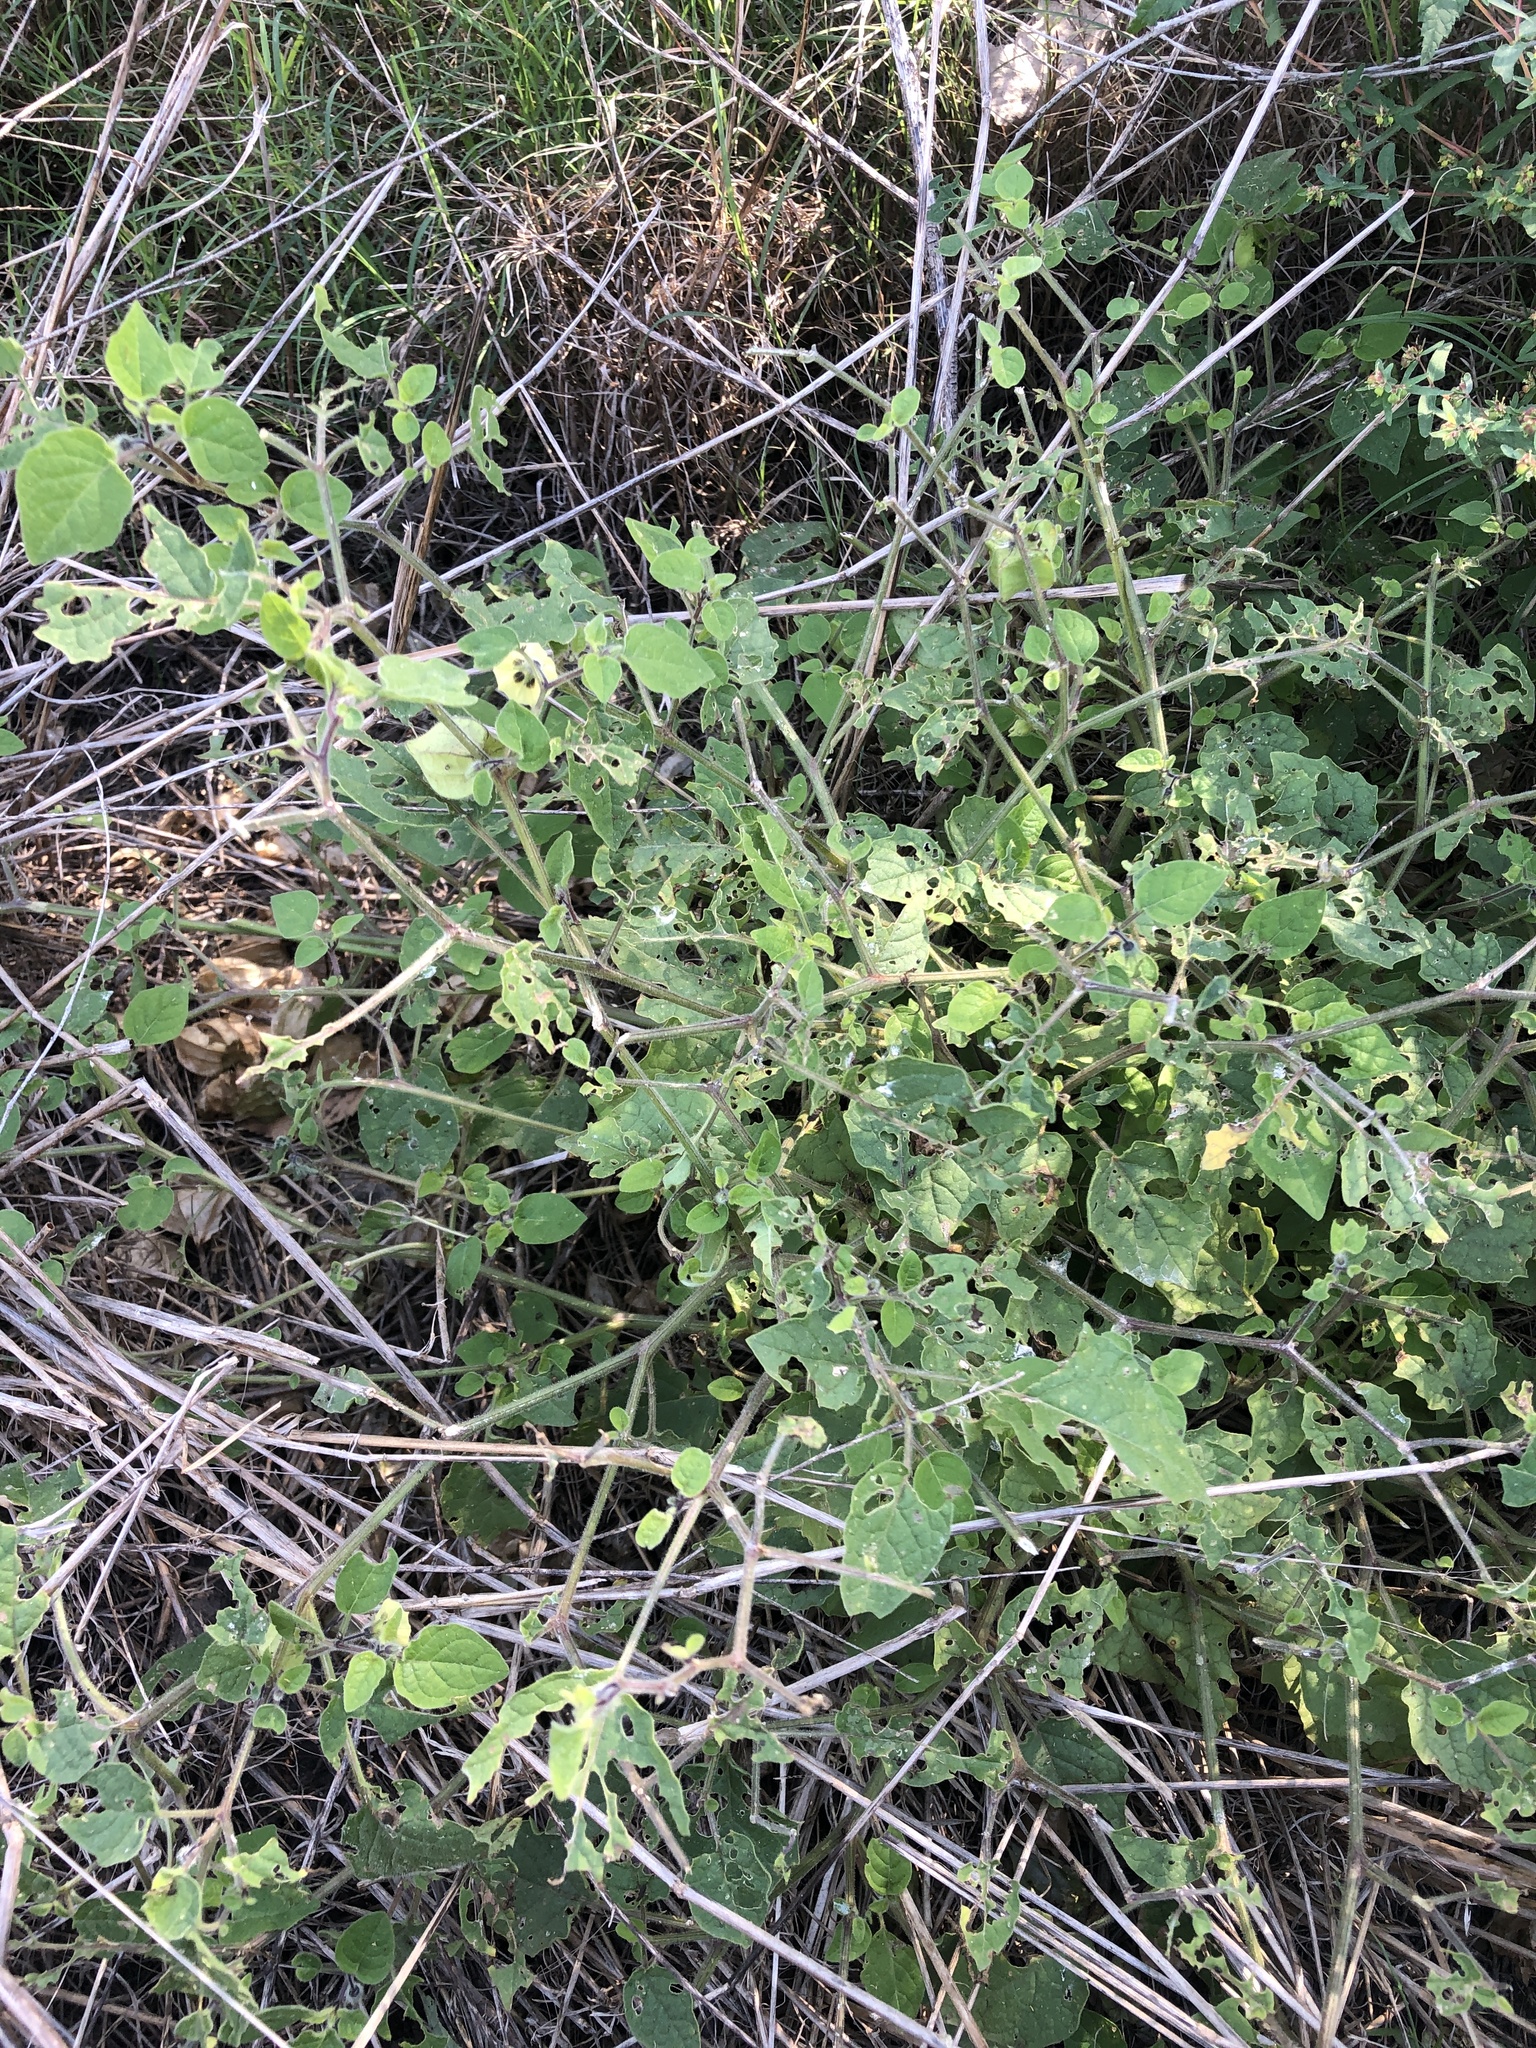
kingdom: Plantae
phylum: Tracheophyta
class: Magnoliopsida
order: Solanales
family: Solanaceae
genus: Physalis
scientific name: Physalis cinerascens
